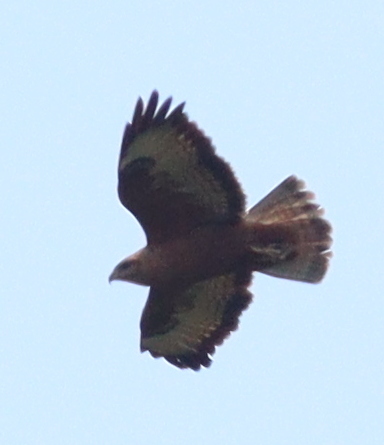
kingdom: Animalia
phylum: Chordata
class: Aves
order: Accipitriformes
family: Accipitridae
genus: Buteo
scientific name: Buteo buteo
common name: Common buzzard
